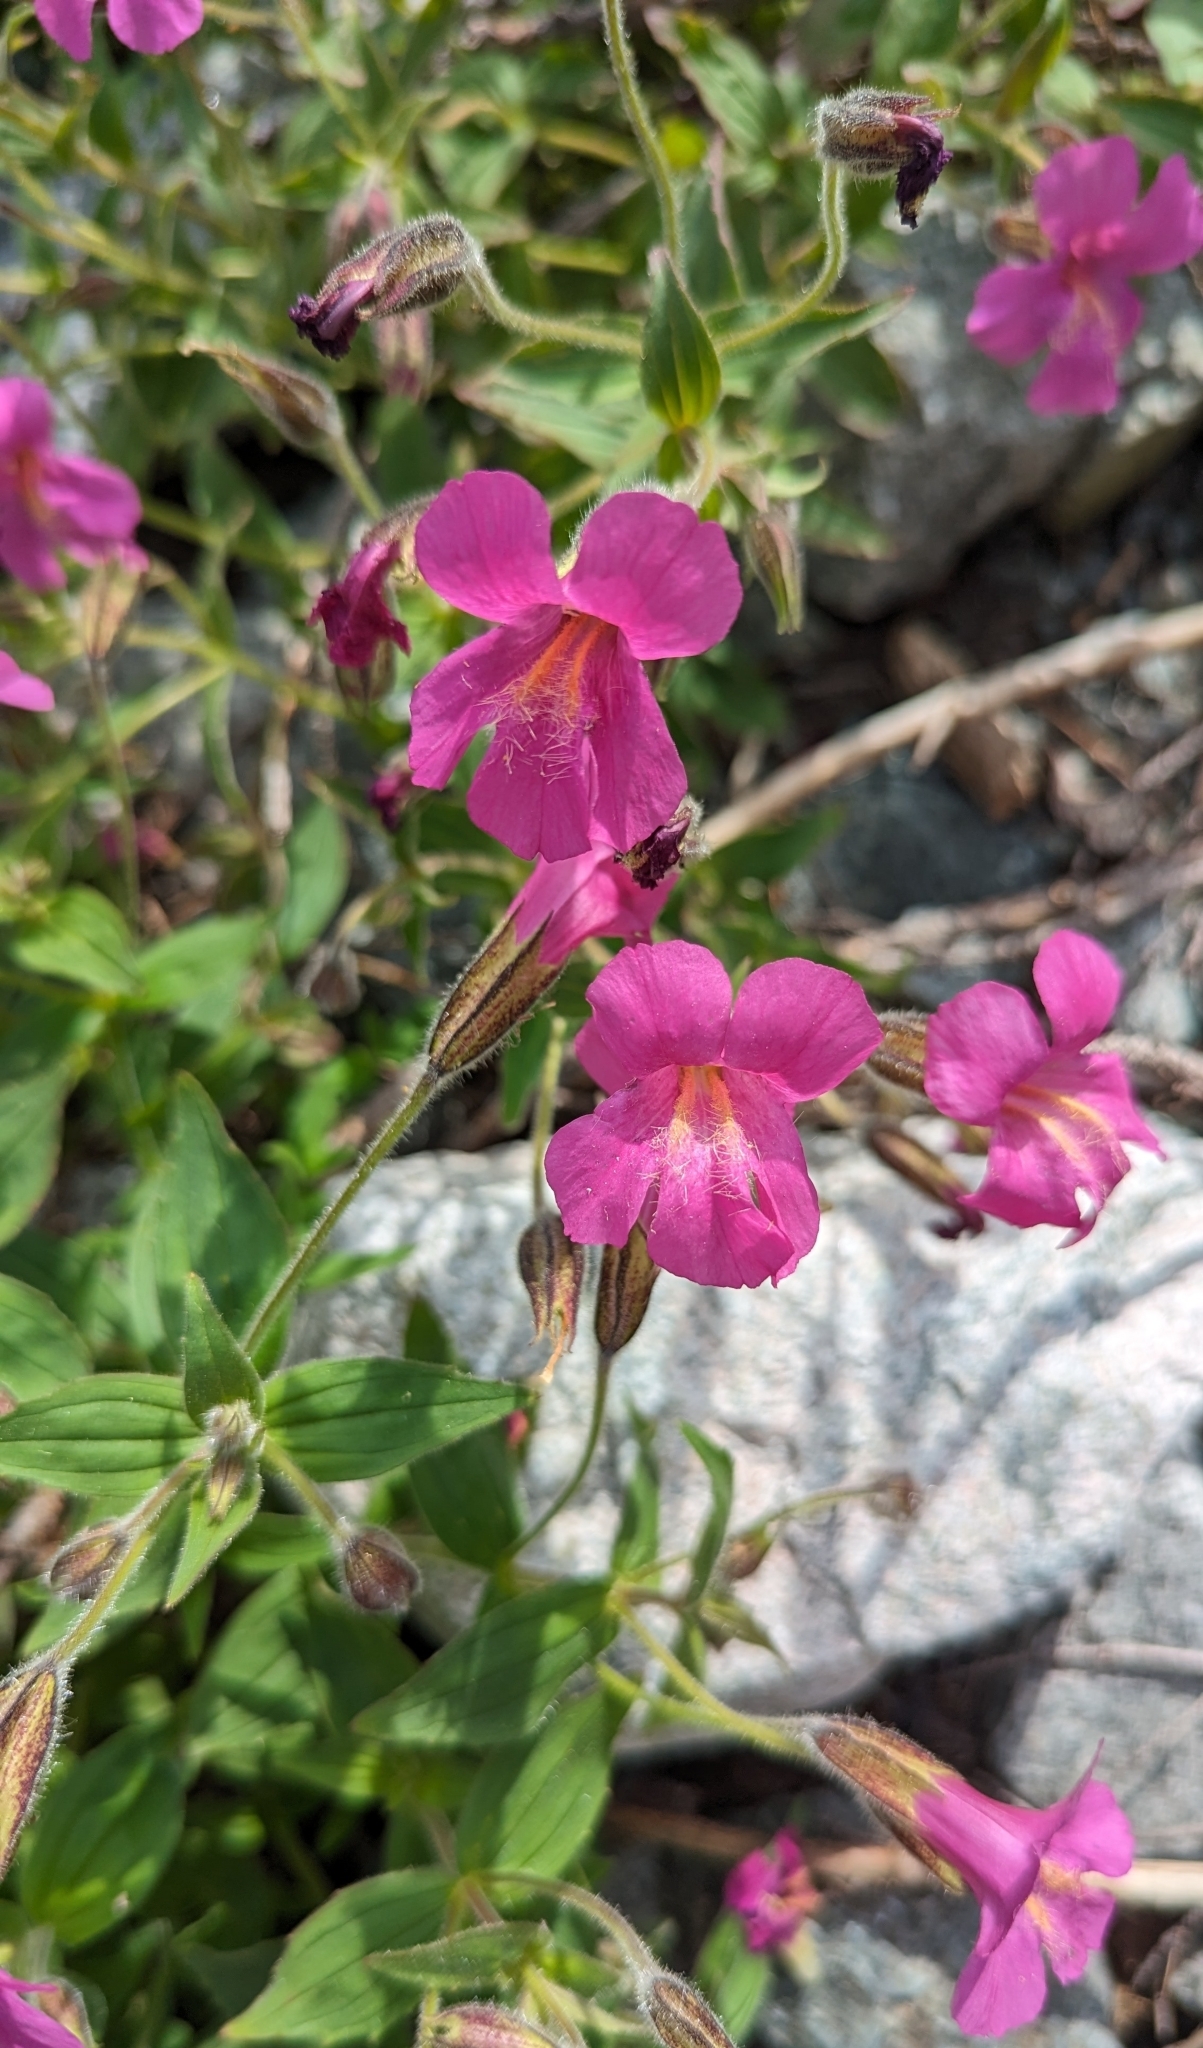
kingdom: Plantae
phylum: Tracheophyta
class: Magnoliopsida
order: Lamiales
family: Phrymaceae
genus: Erythranthe
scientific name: Erythranthe lewisii
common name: Lewis's monkey-flower
